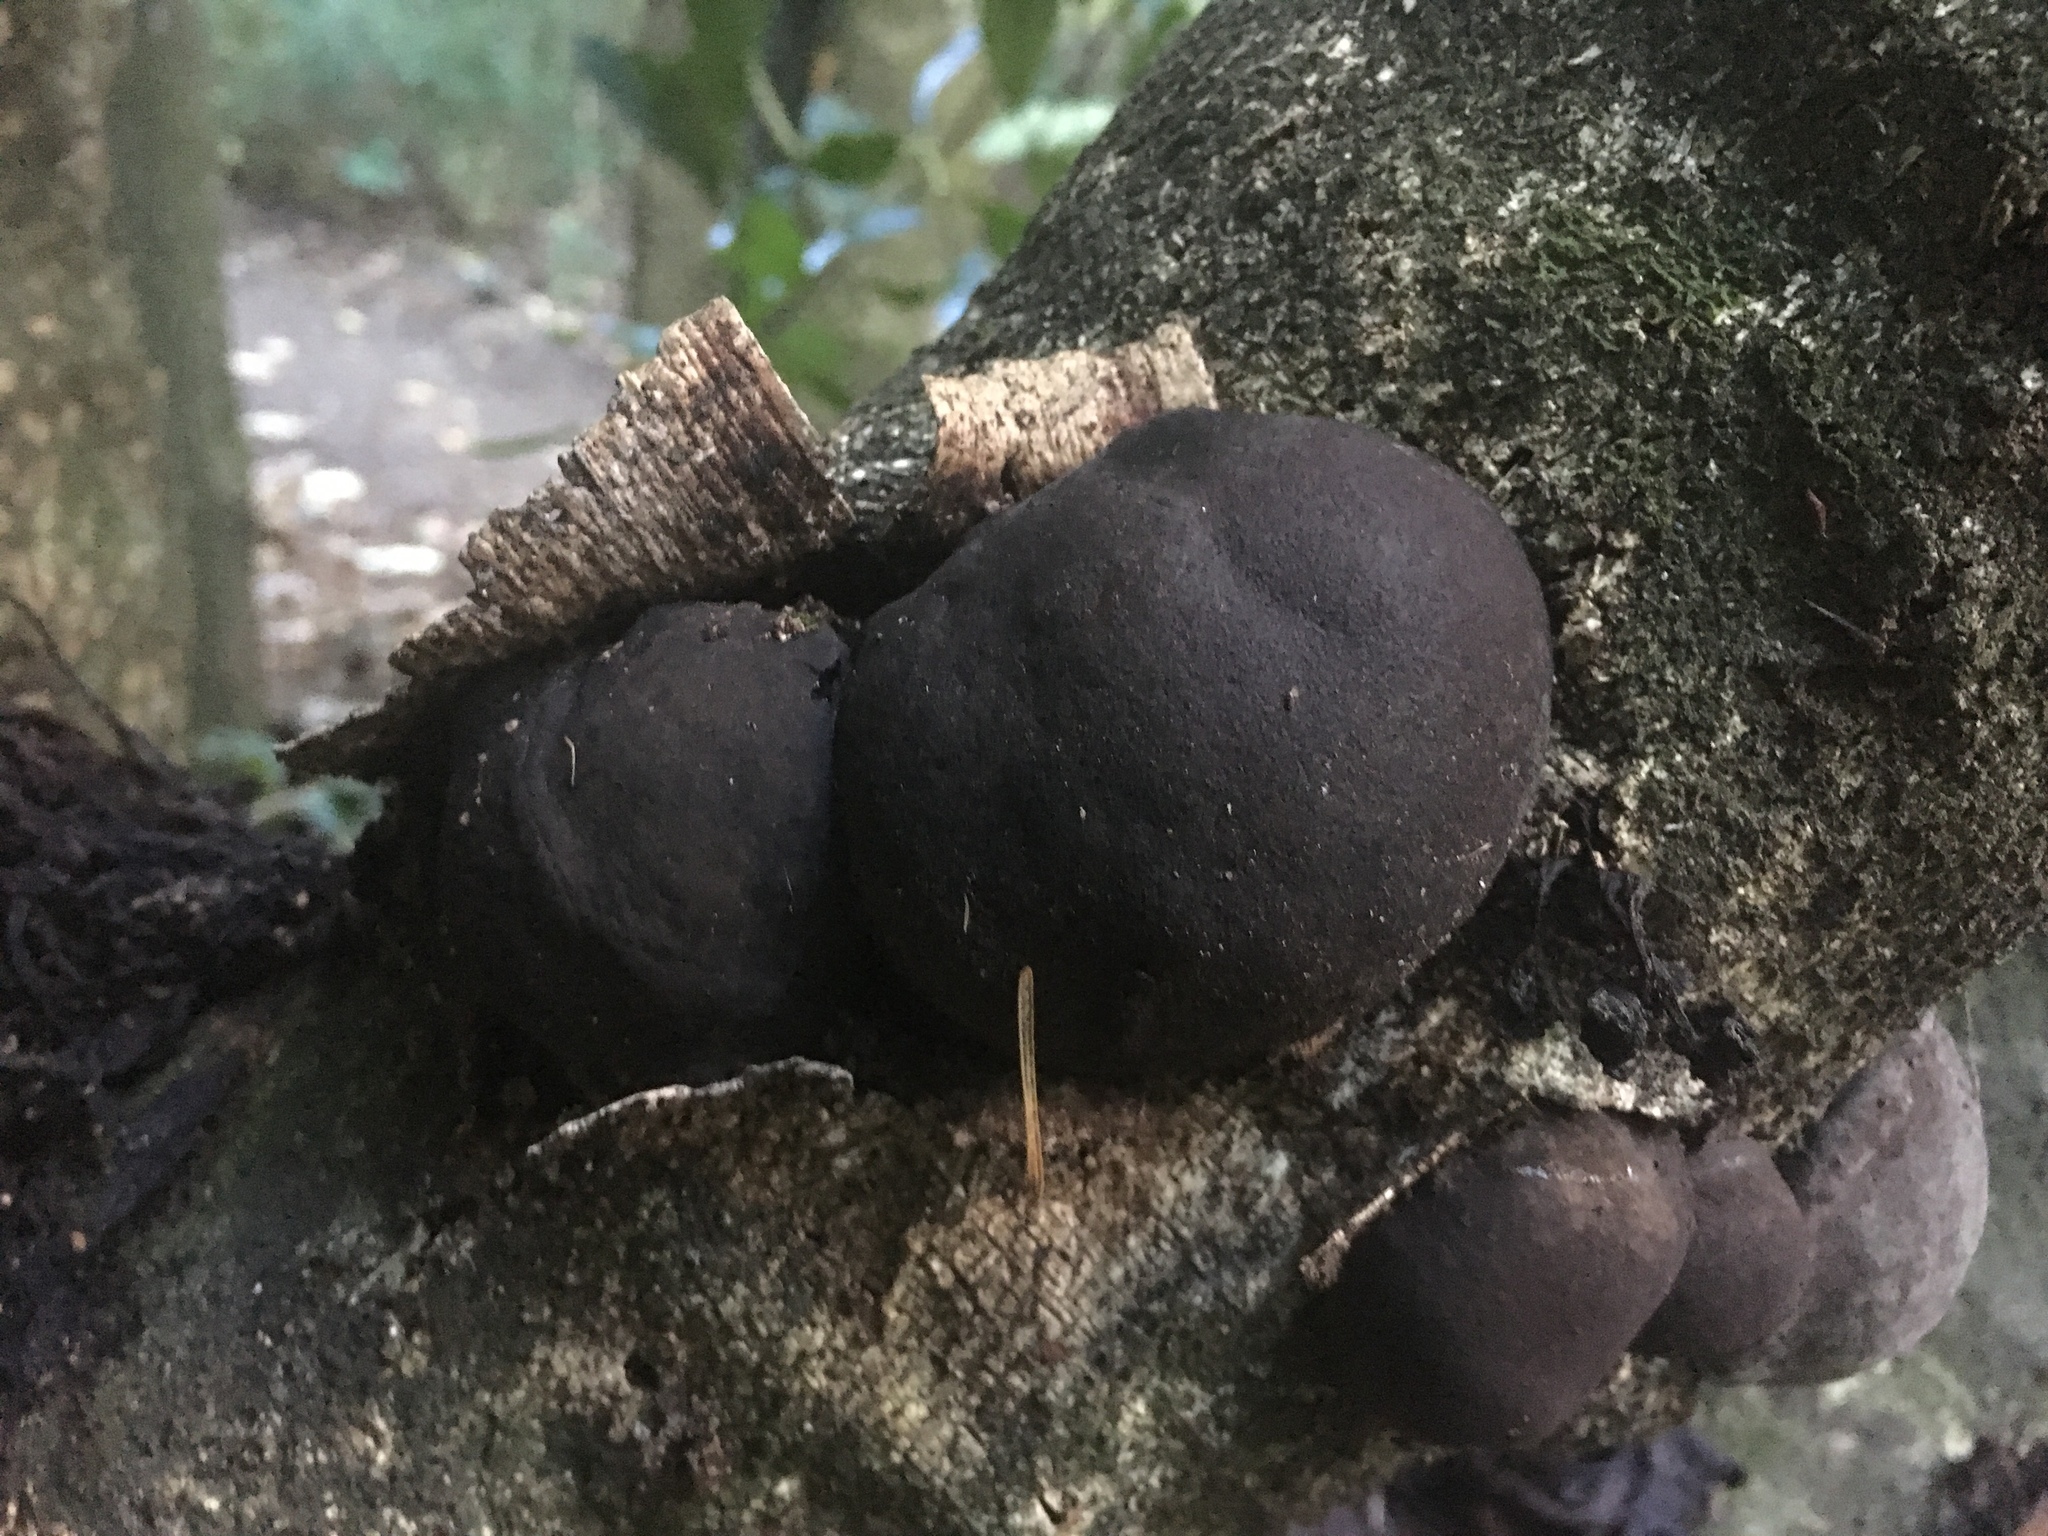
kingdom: Fungi
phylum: Ascomycota
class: Sordariomycetes
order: Xylariales
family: Hypoxylaceae
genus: Daldinia
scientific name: Daldinia
